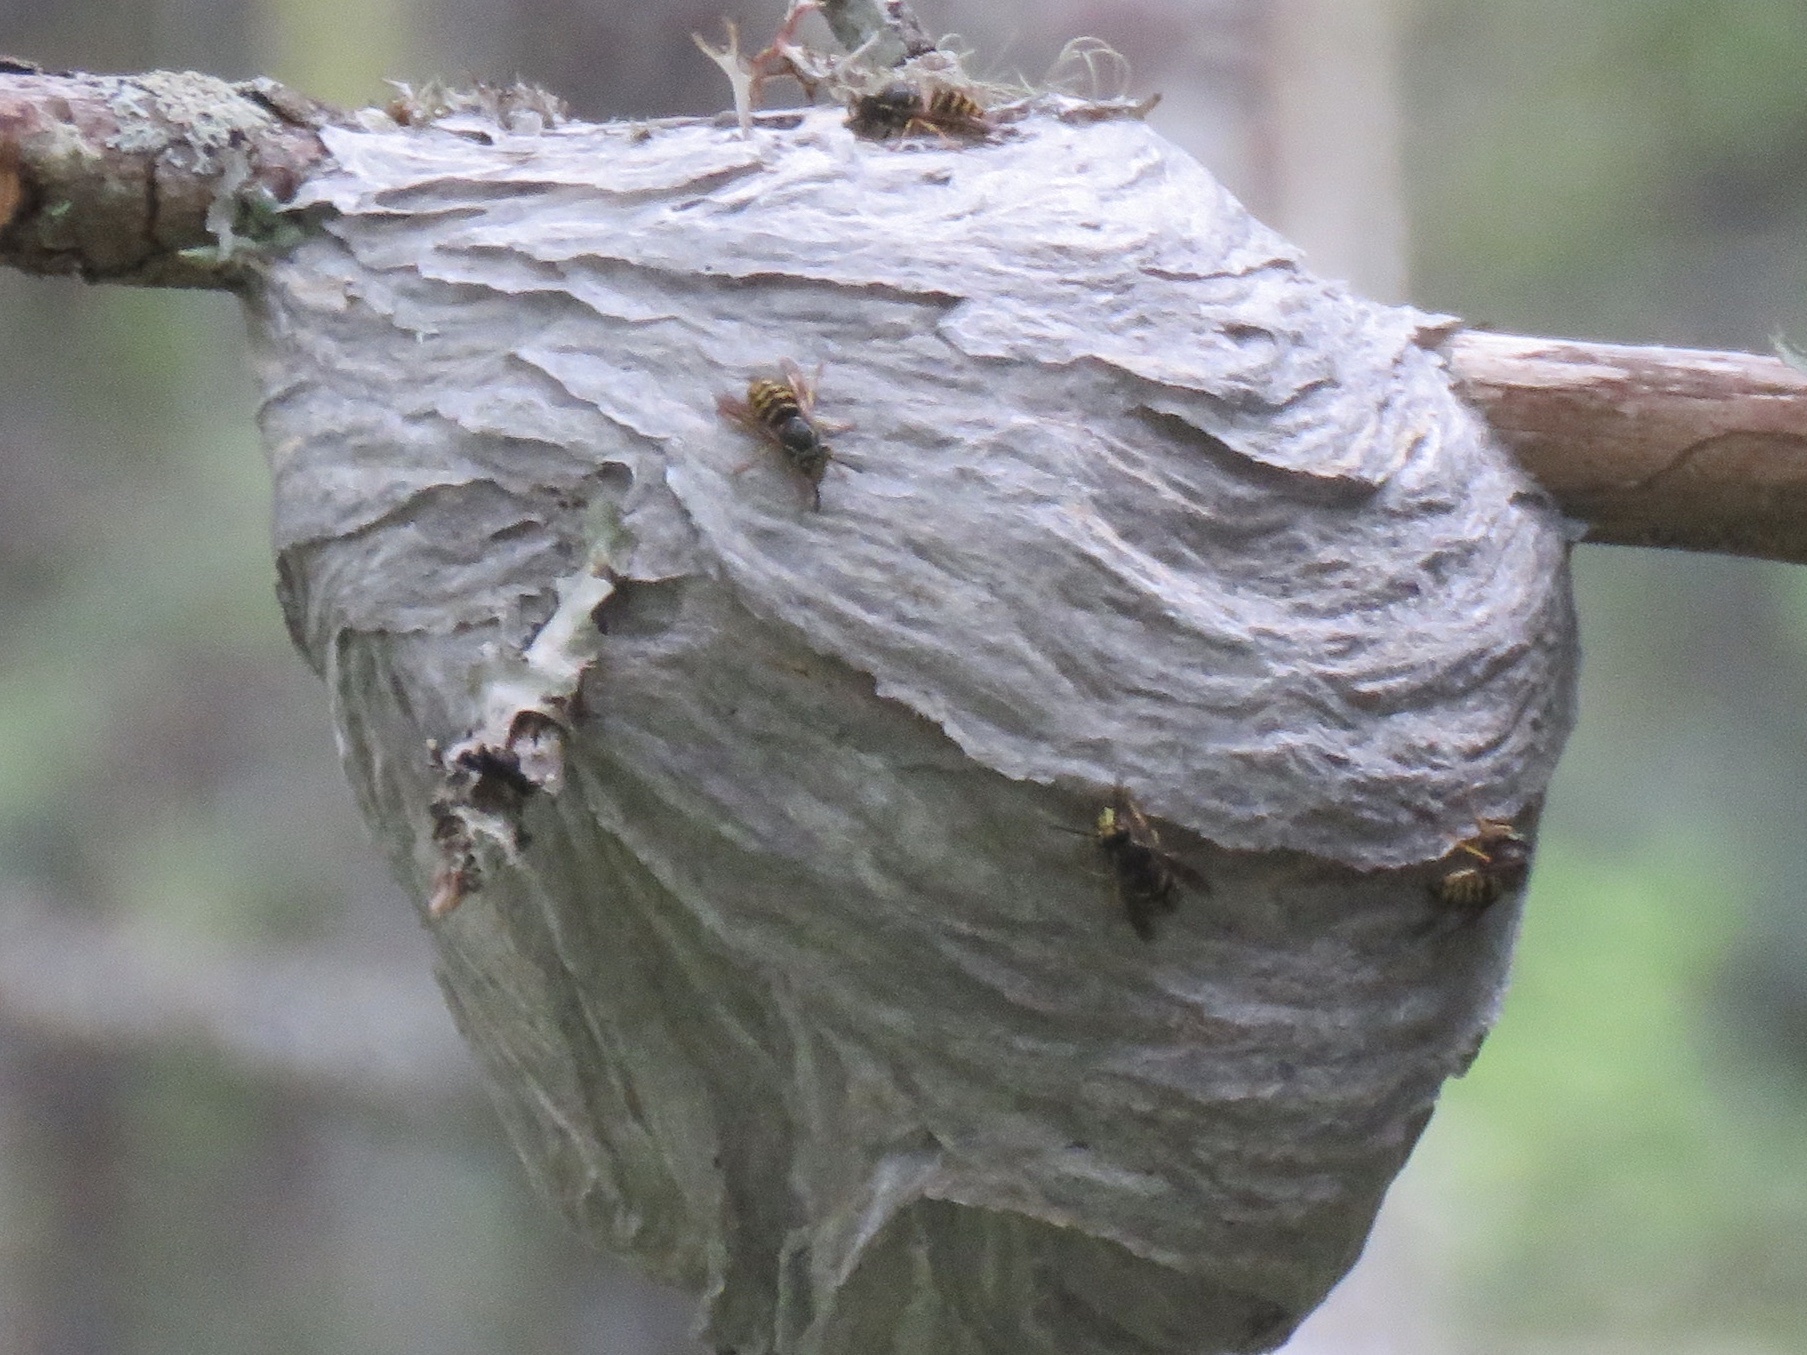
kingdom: Animalia
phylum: Arthropoda
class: Insecta
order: Hymenoptera
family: Vespidae
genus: Dolichovespula
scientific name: Dolichovespula arenaria
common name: Aerial yellowjacket
